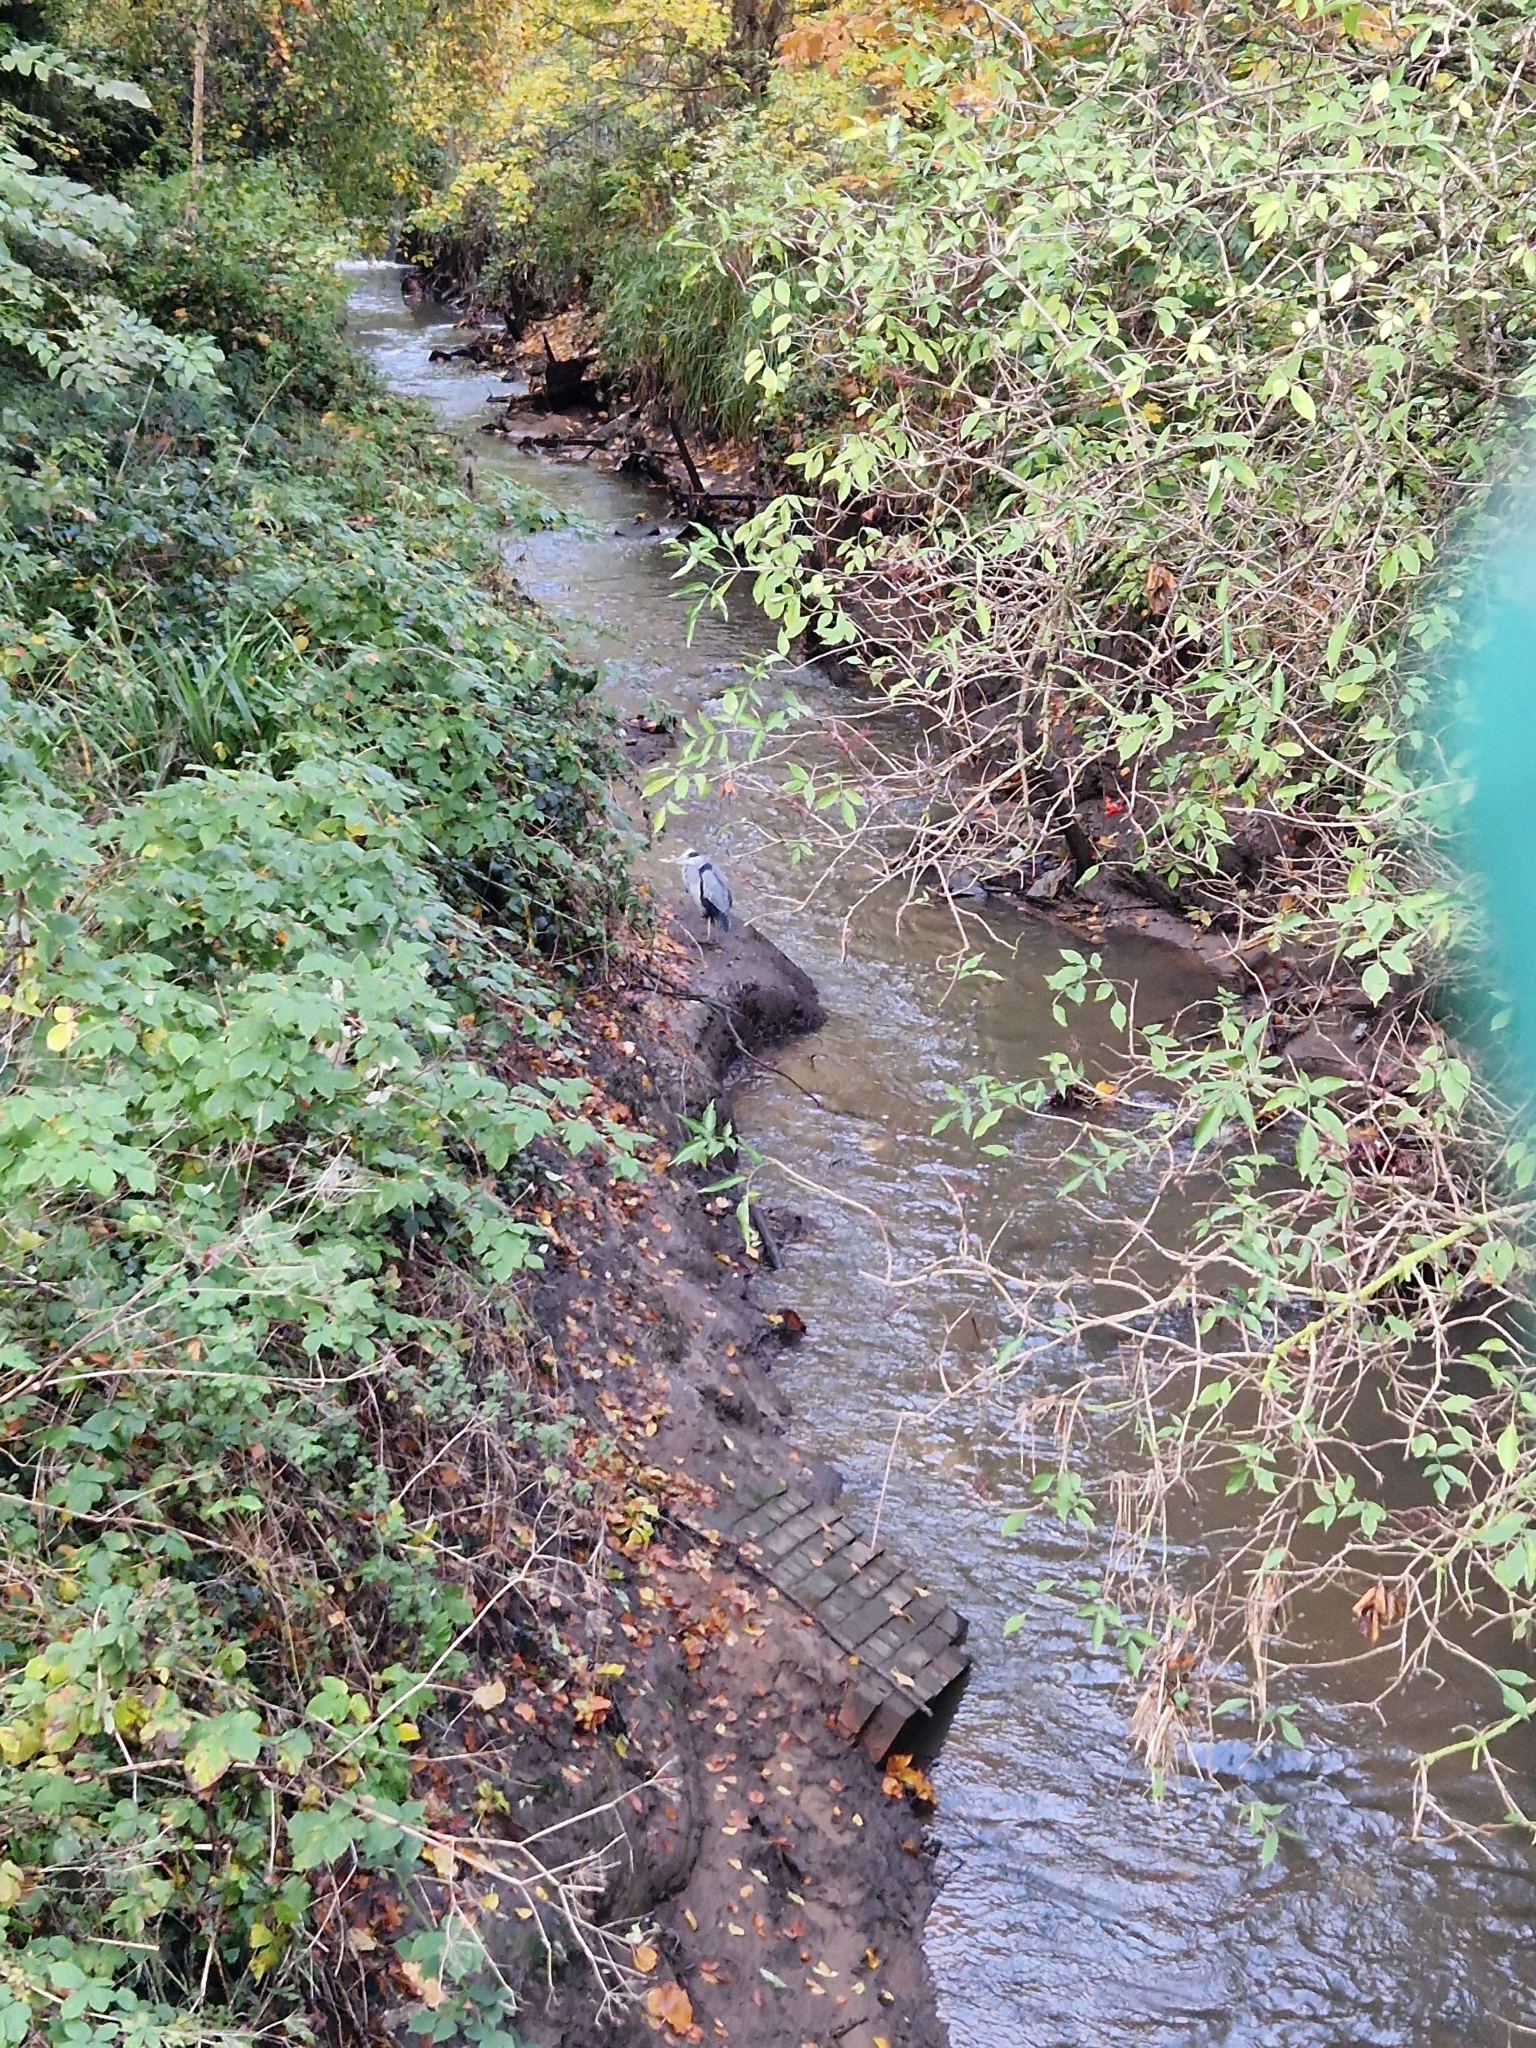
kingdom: Animalia
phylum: Chordata
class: Aves
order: Pelecaniformes
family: Ardeidae
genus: Ardea
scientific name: Ardea cinerea
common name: Grey heron
